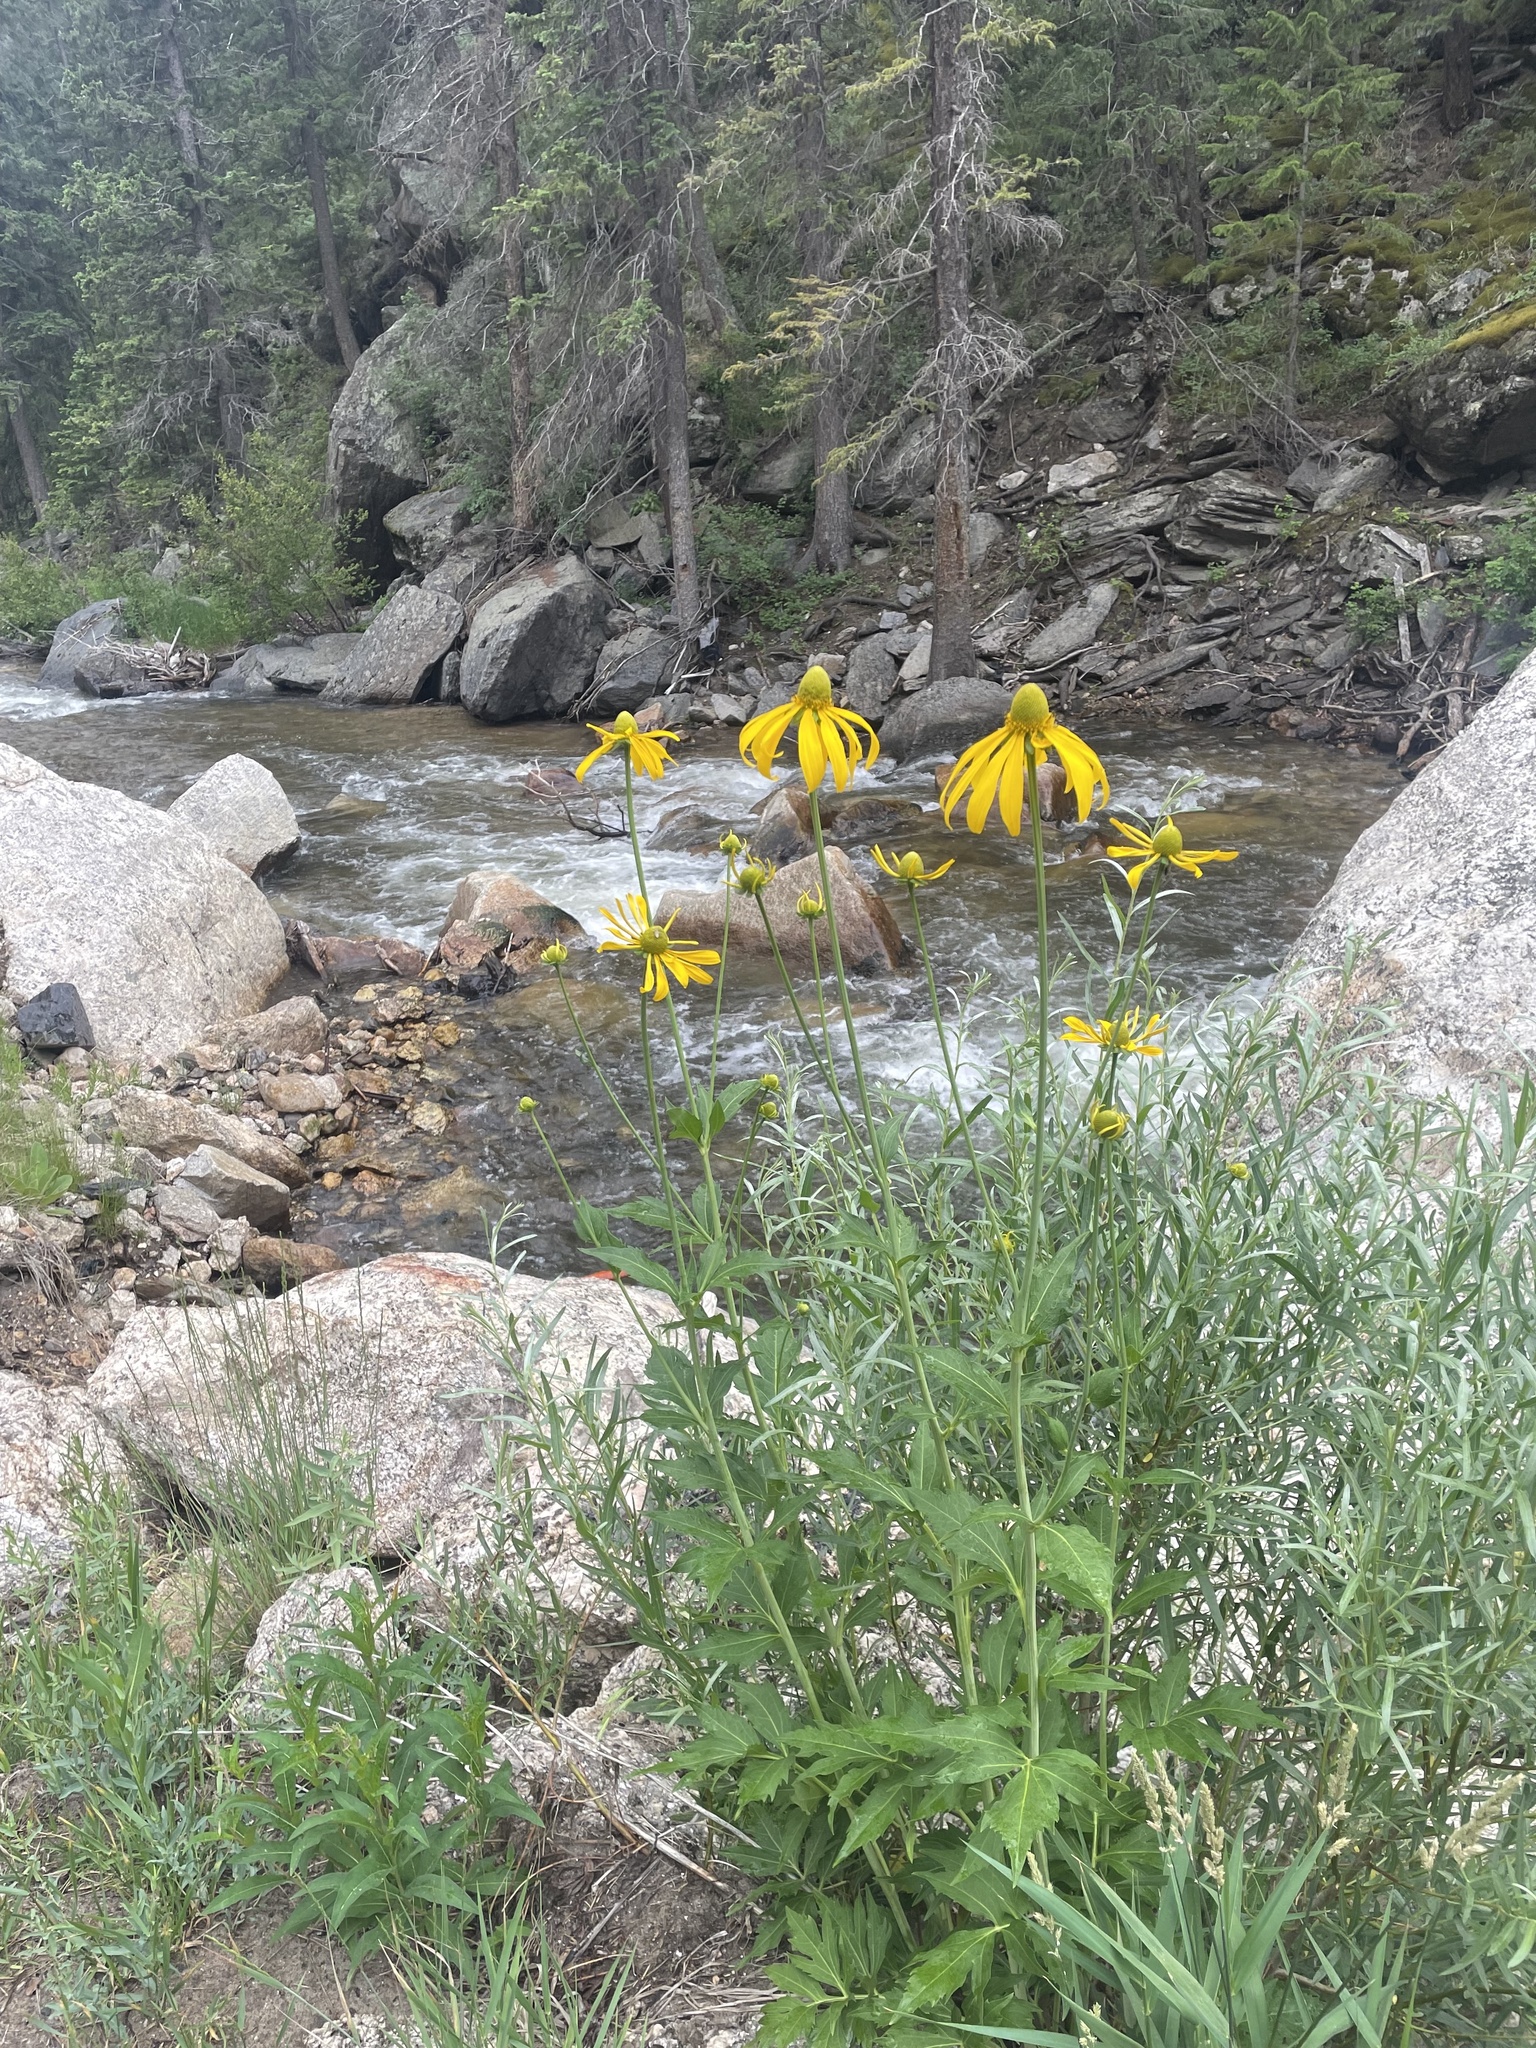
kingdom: Plantae
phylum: Tracheophyta
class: Magnoliopsida
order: Asterales
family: Asteraceae
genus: Rudbeckia
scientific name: Rudbeckia laciniata
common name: Coneflower
